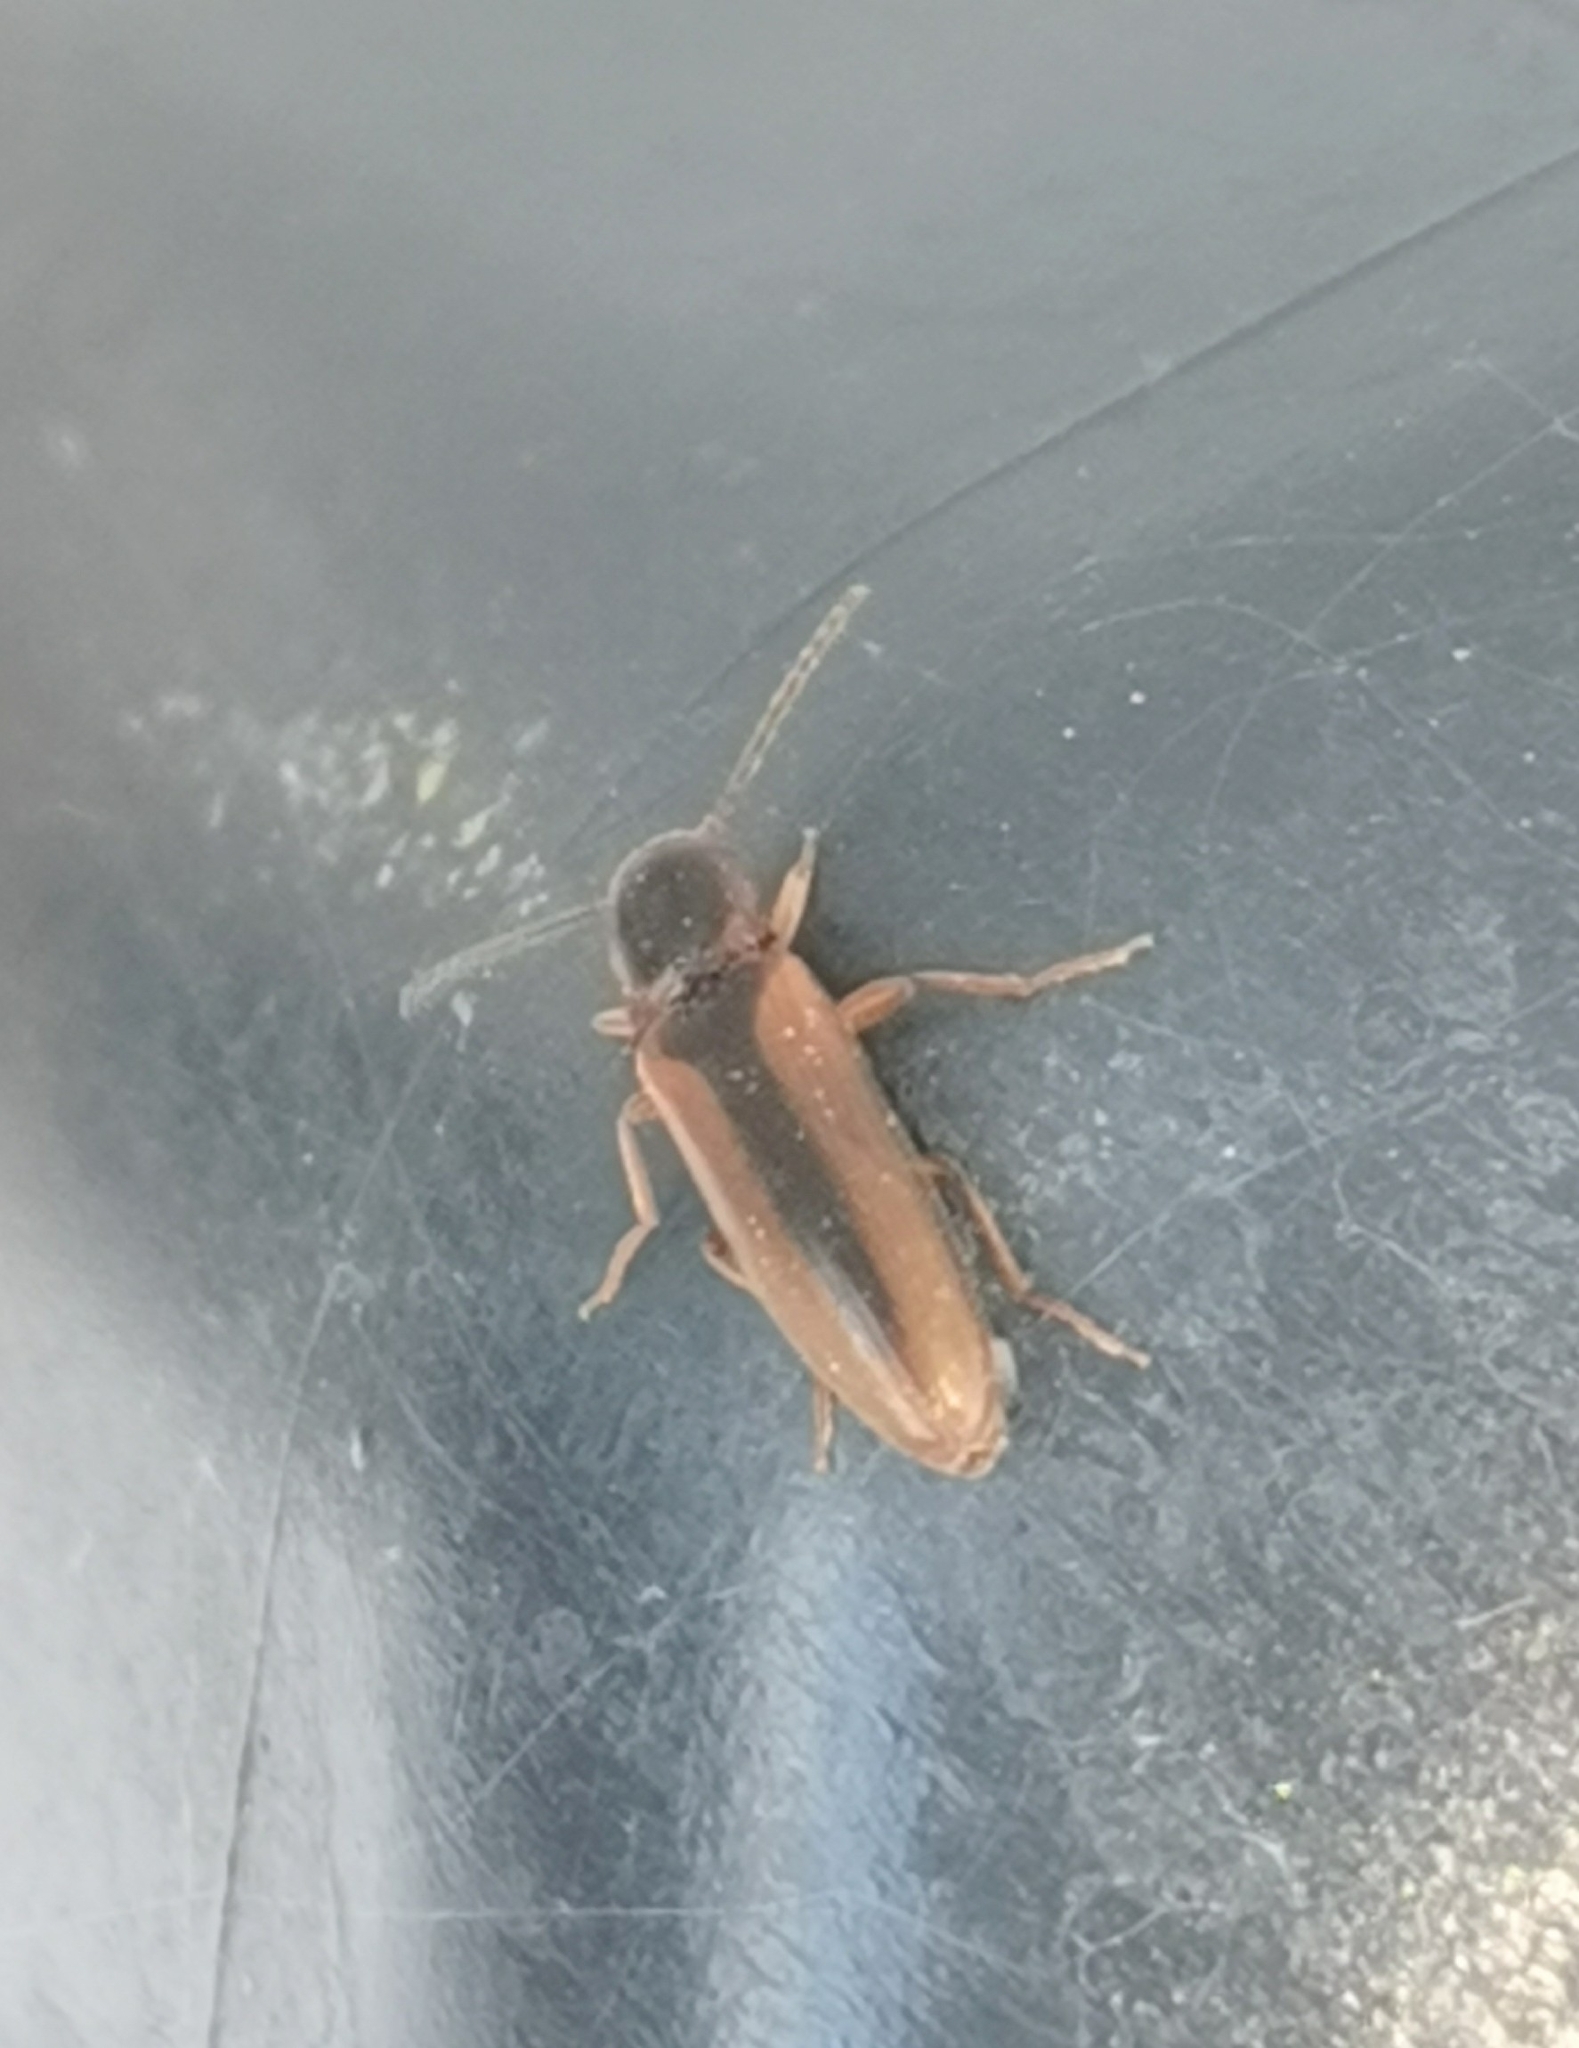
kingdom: Animalia
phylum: Arthropoda
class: Insecta
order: Coleoptera
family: Elateridae
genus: Dalopius
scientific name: Dalopius marginatus
